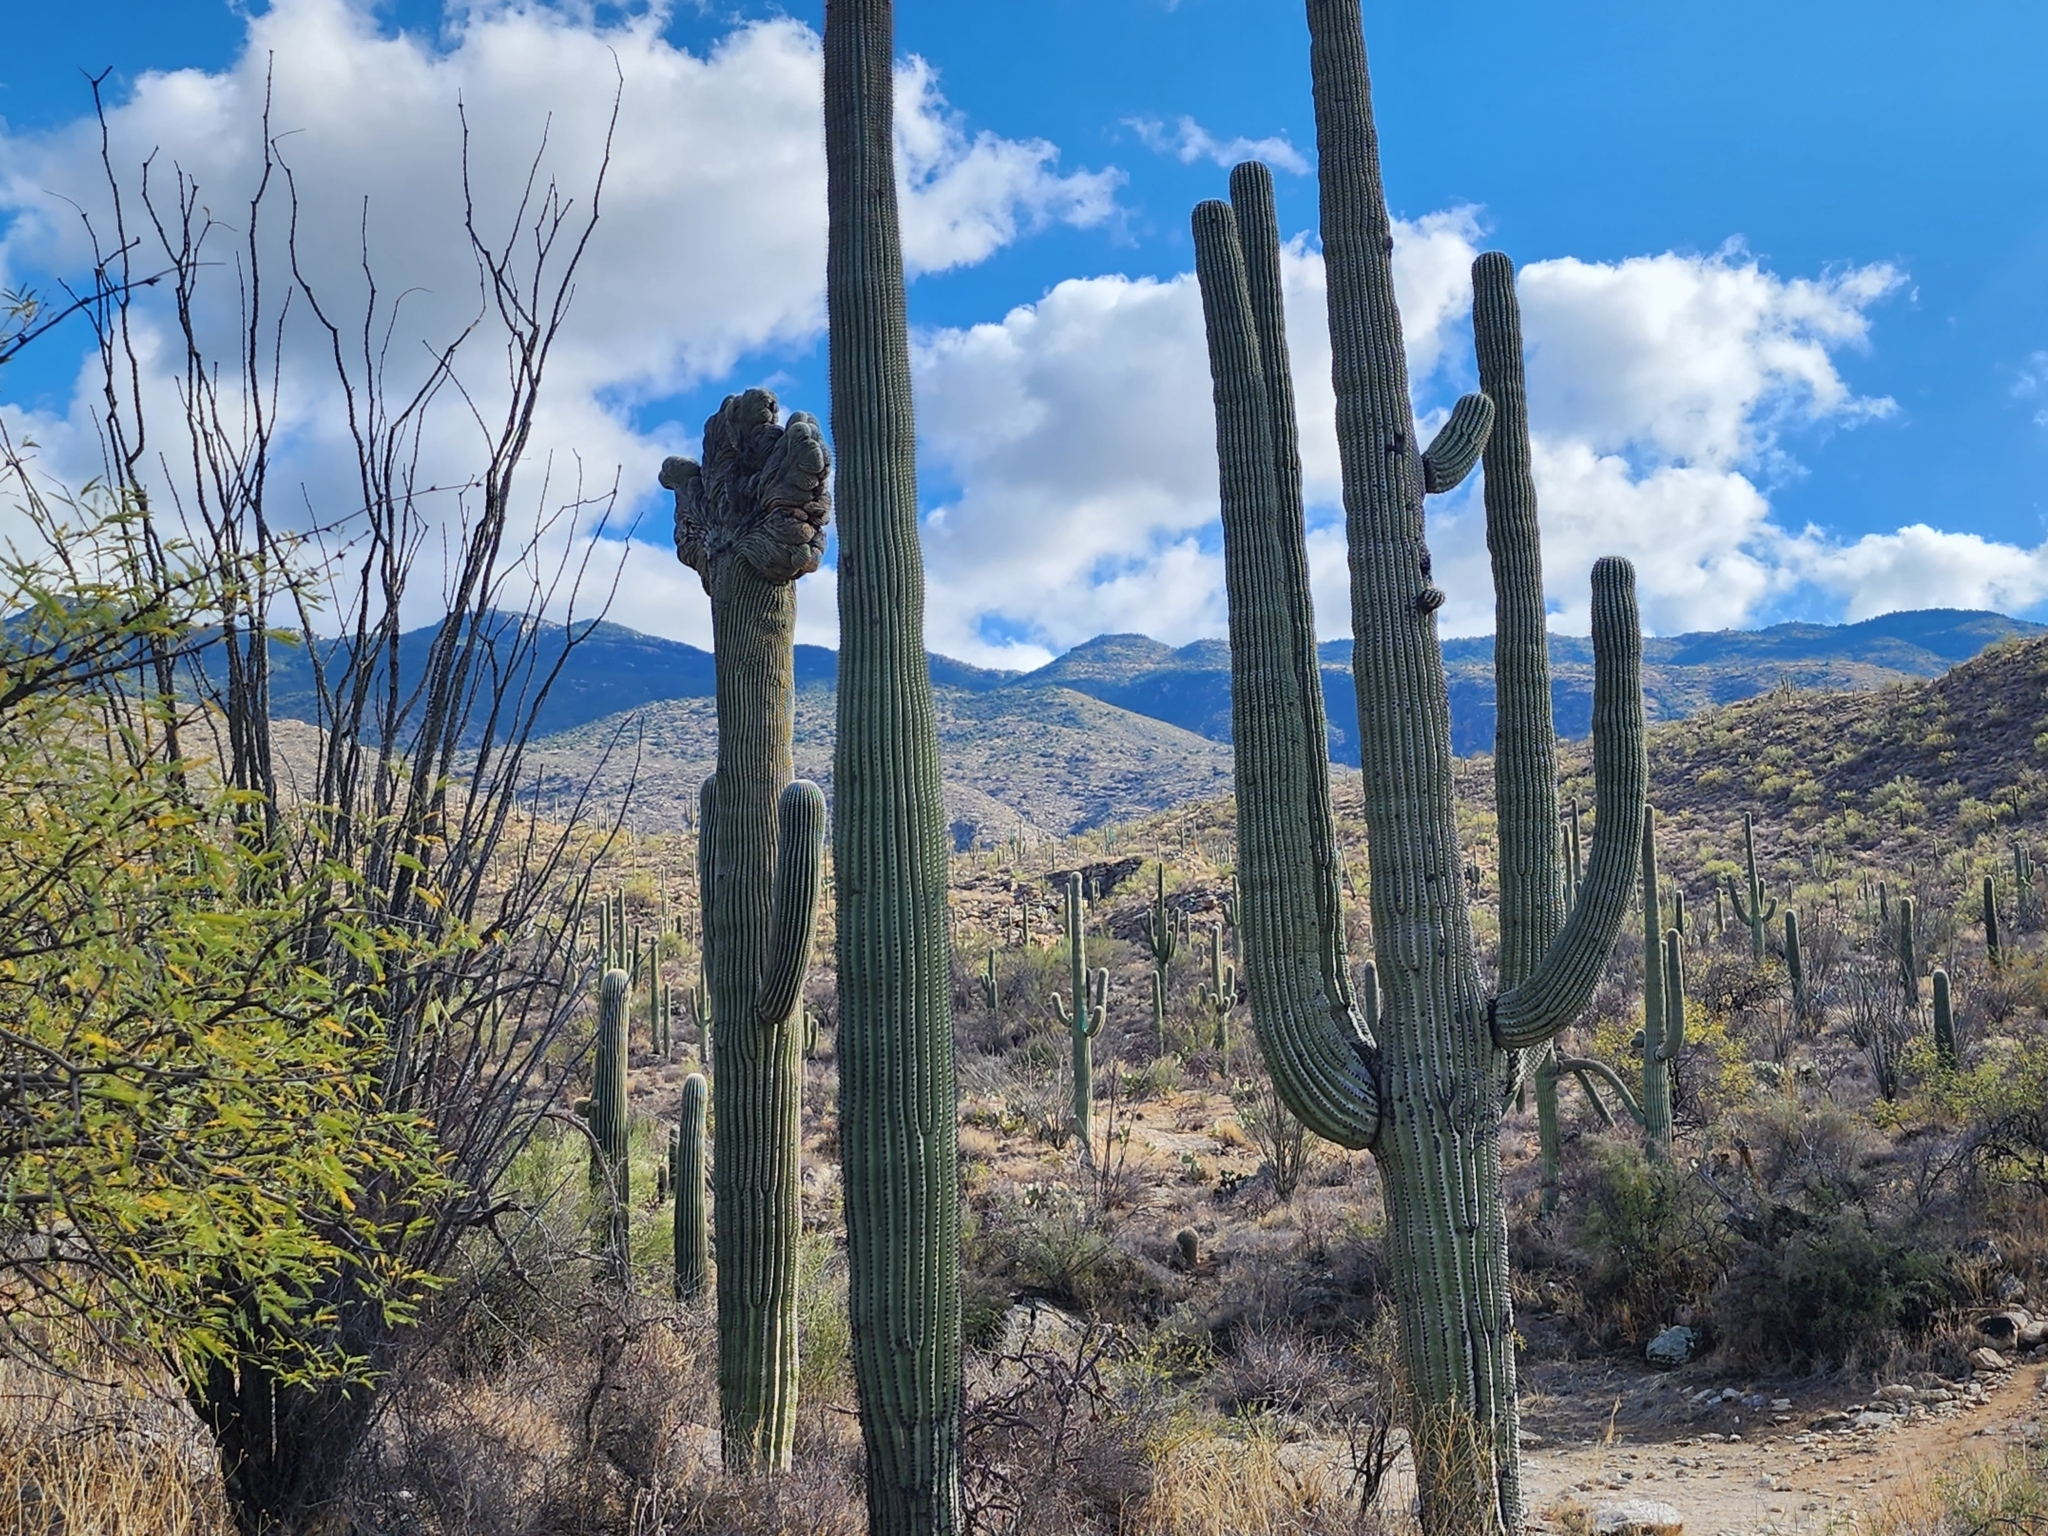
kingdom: Plantae
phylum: Tracheophyta
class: Magnoliopsida
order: Caryophyllales
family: Cactaceae
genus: Carnegiea
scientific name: Carnegiea gigantea
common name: Saguaro
